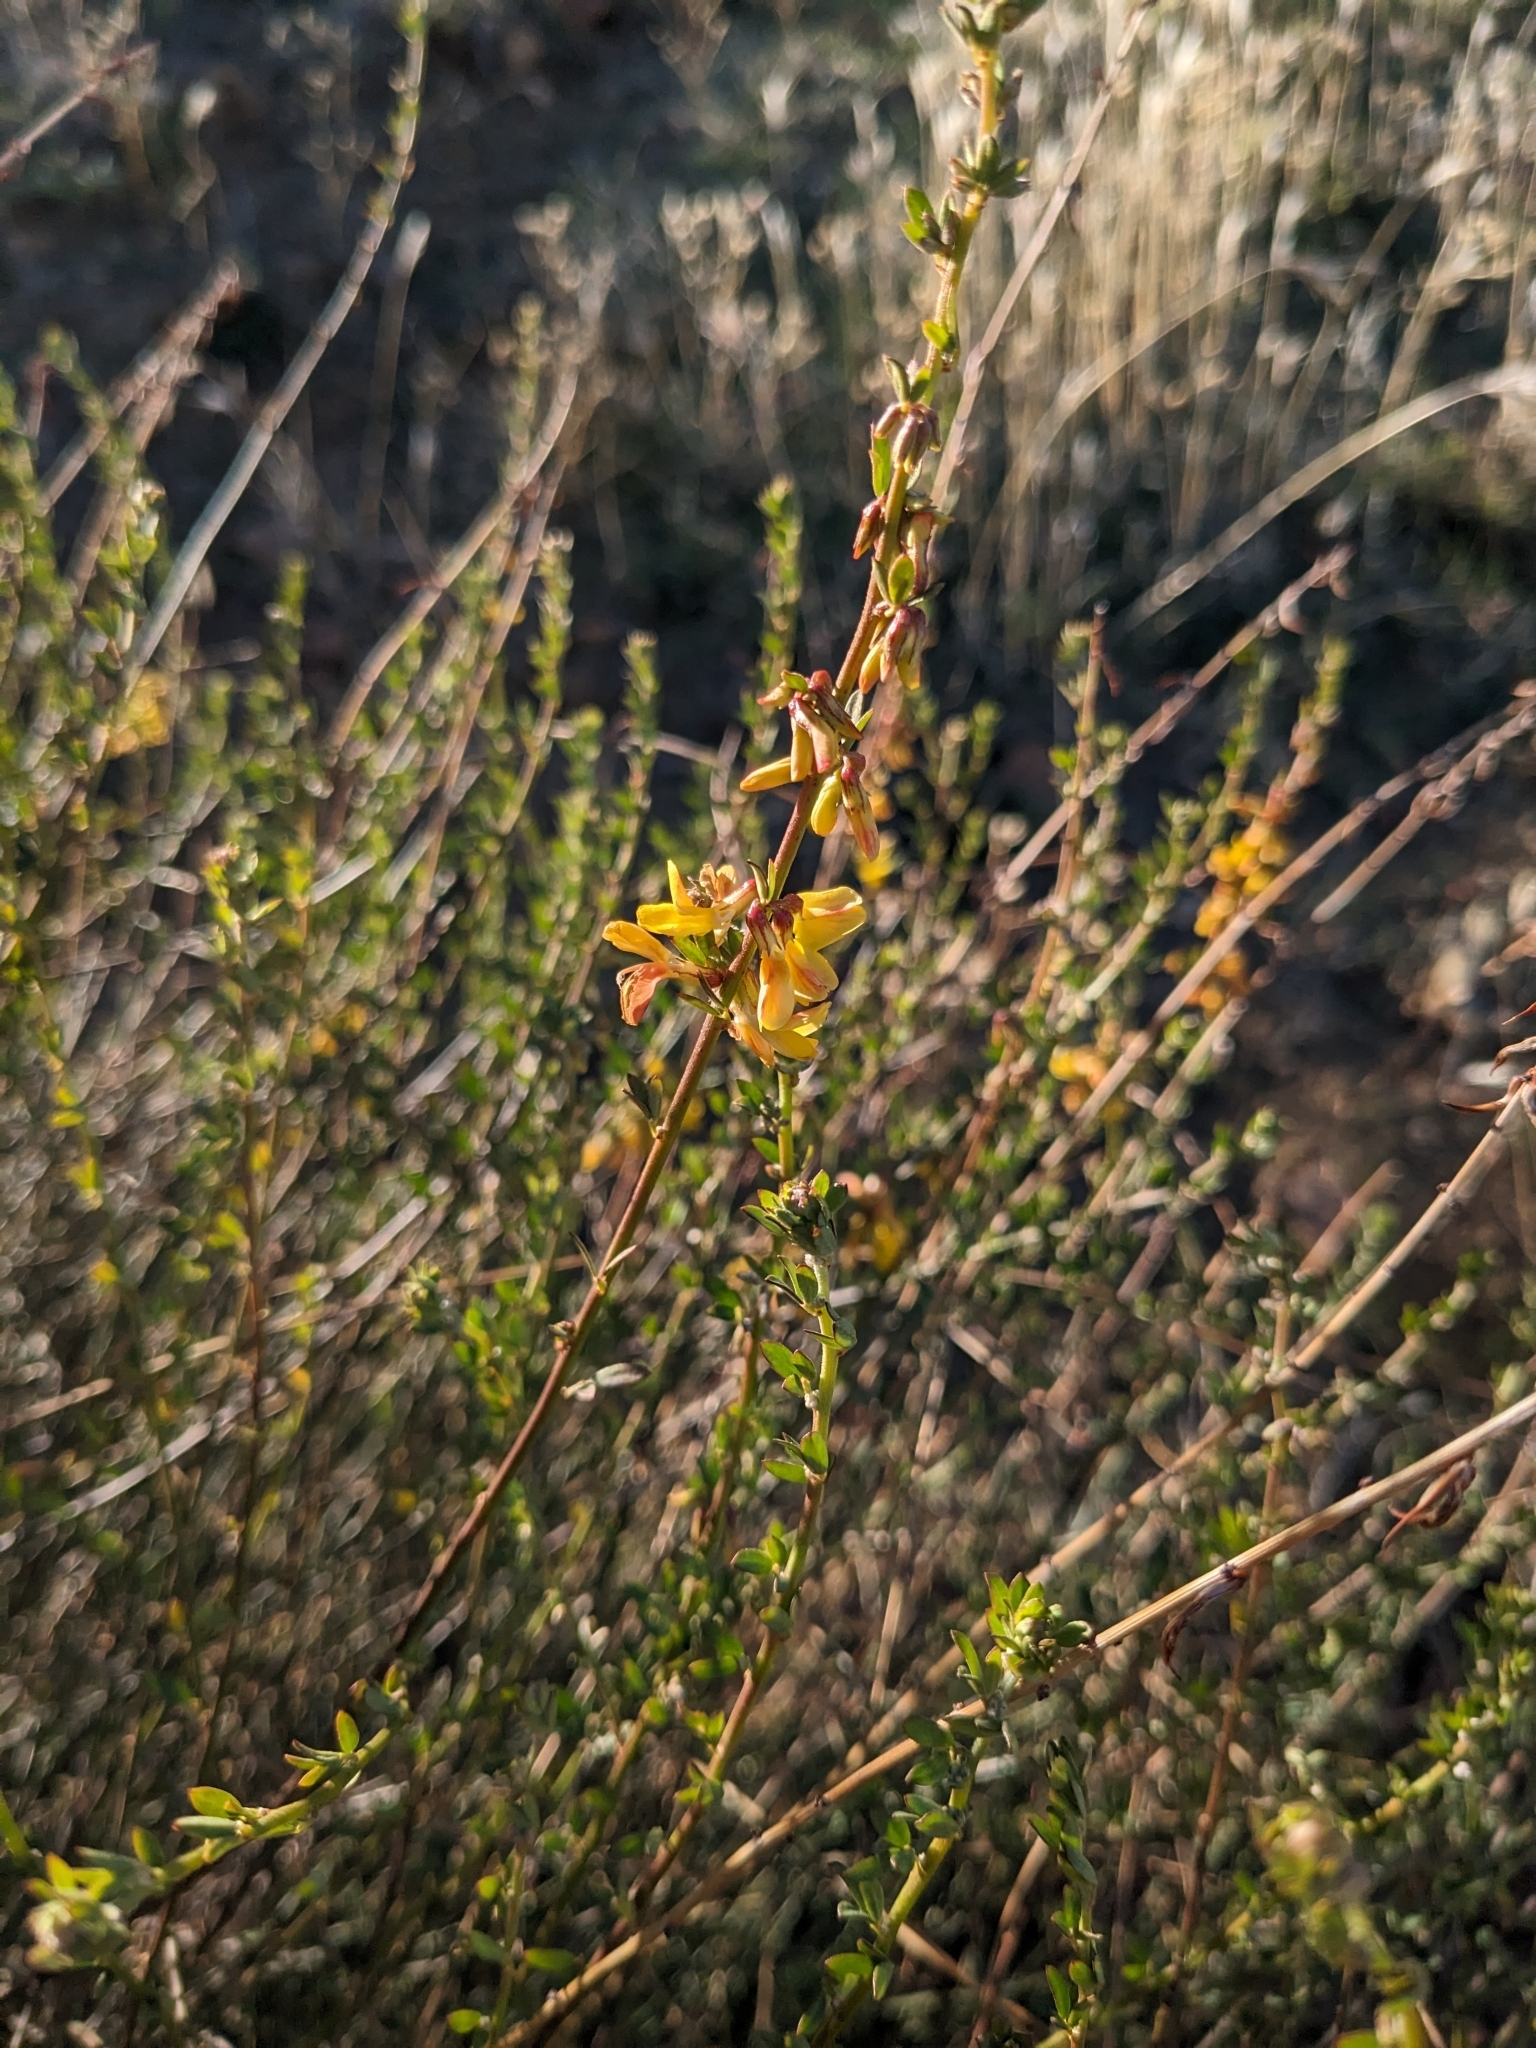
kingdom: Plantae
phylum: Tracheophyta
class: Magnoliopsida
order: Fabales
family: Fabaceae
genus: Acmispon
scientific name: Acmispon glaber
